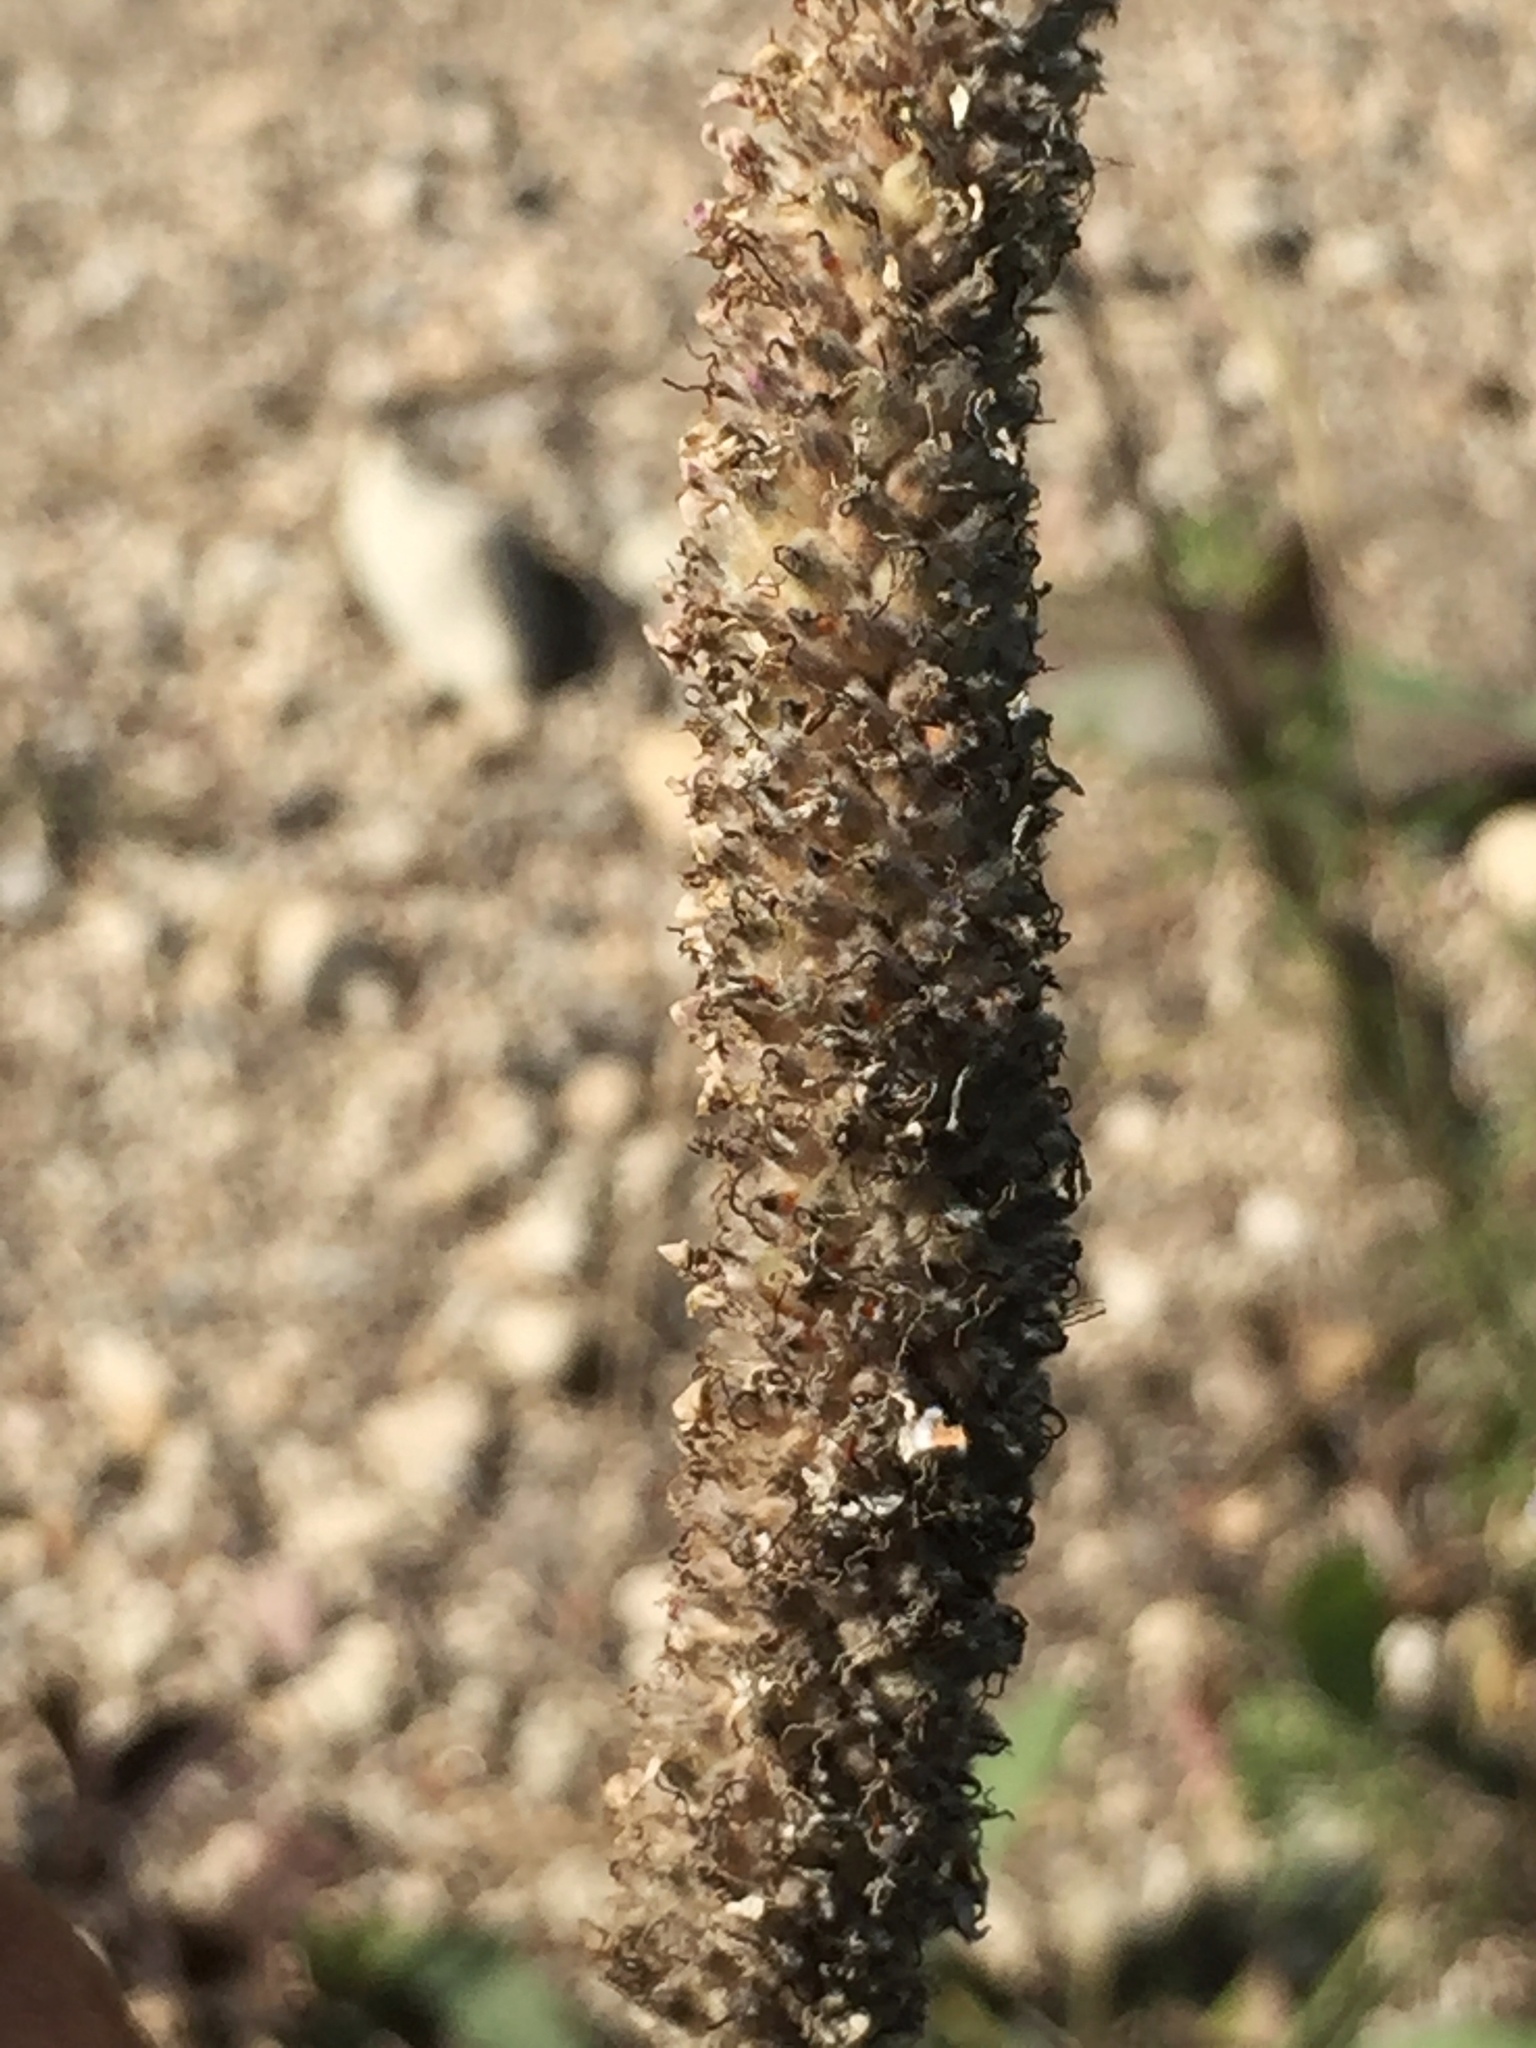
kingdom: Plantae
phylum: Tracheophyta
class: Magnoliopsida
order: Fabales
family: Fabaceae
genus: Dalea
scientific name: Dalea purpurea
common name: Purple prairie-clover
